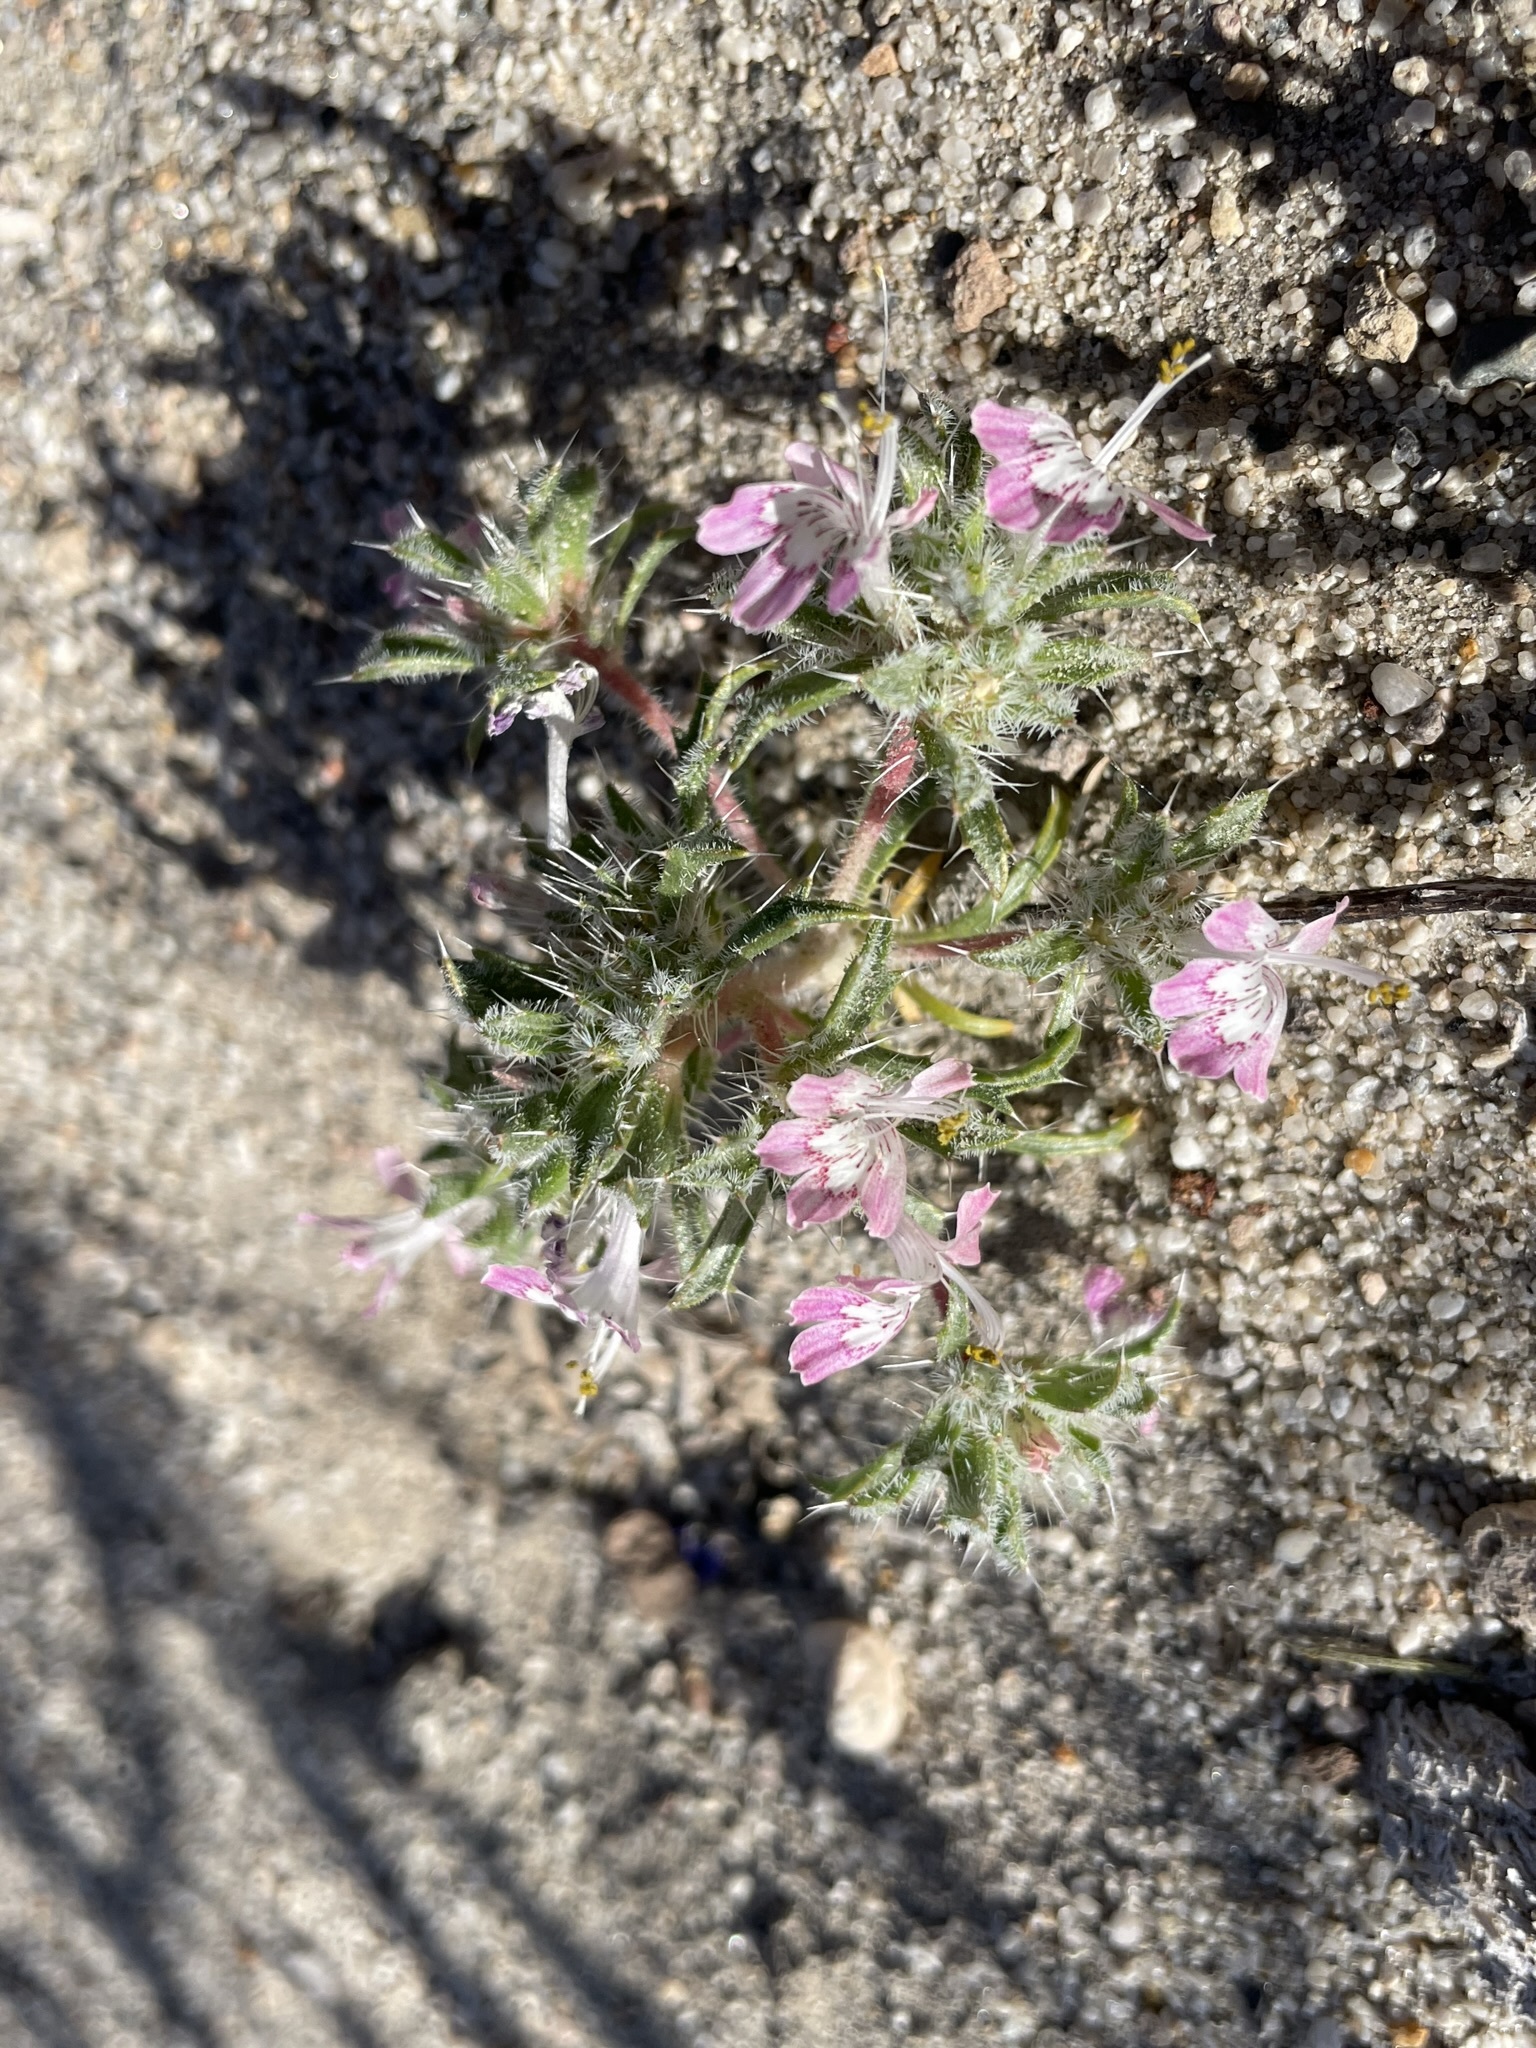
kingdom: Plantae
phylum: Tracheophyta
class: Magnoliopsida
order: Ericales
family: Polemoniaceae
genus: Loeseliastrum
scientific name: Loeseliastrum matthewsii
